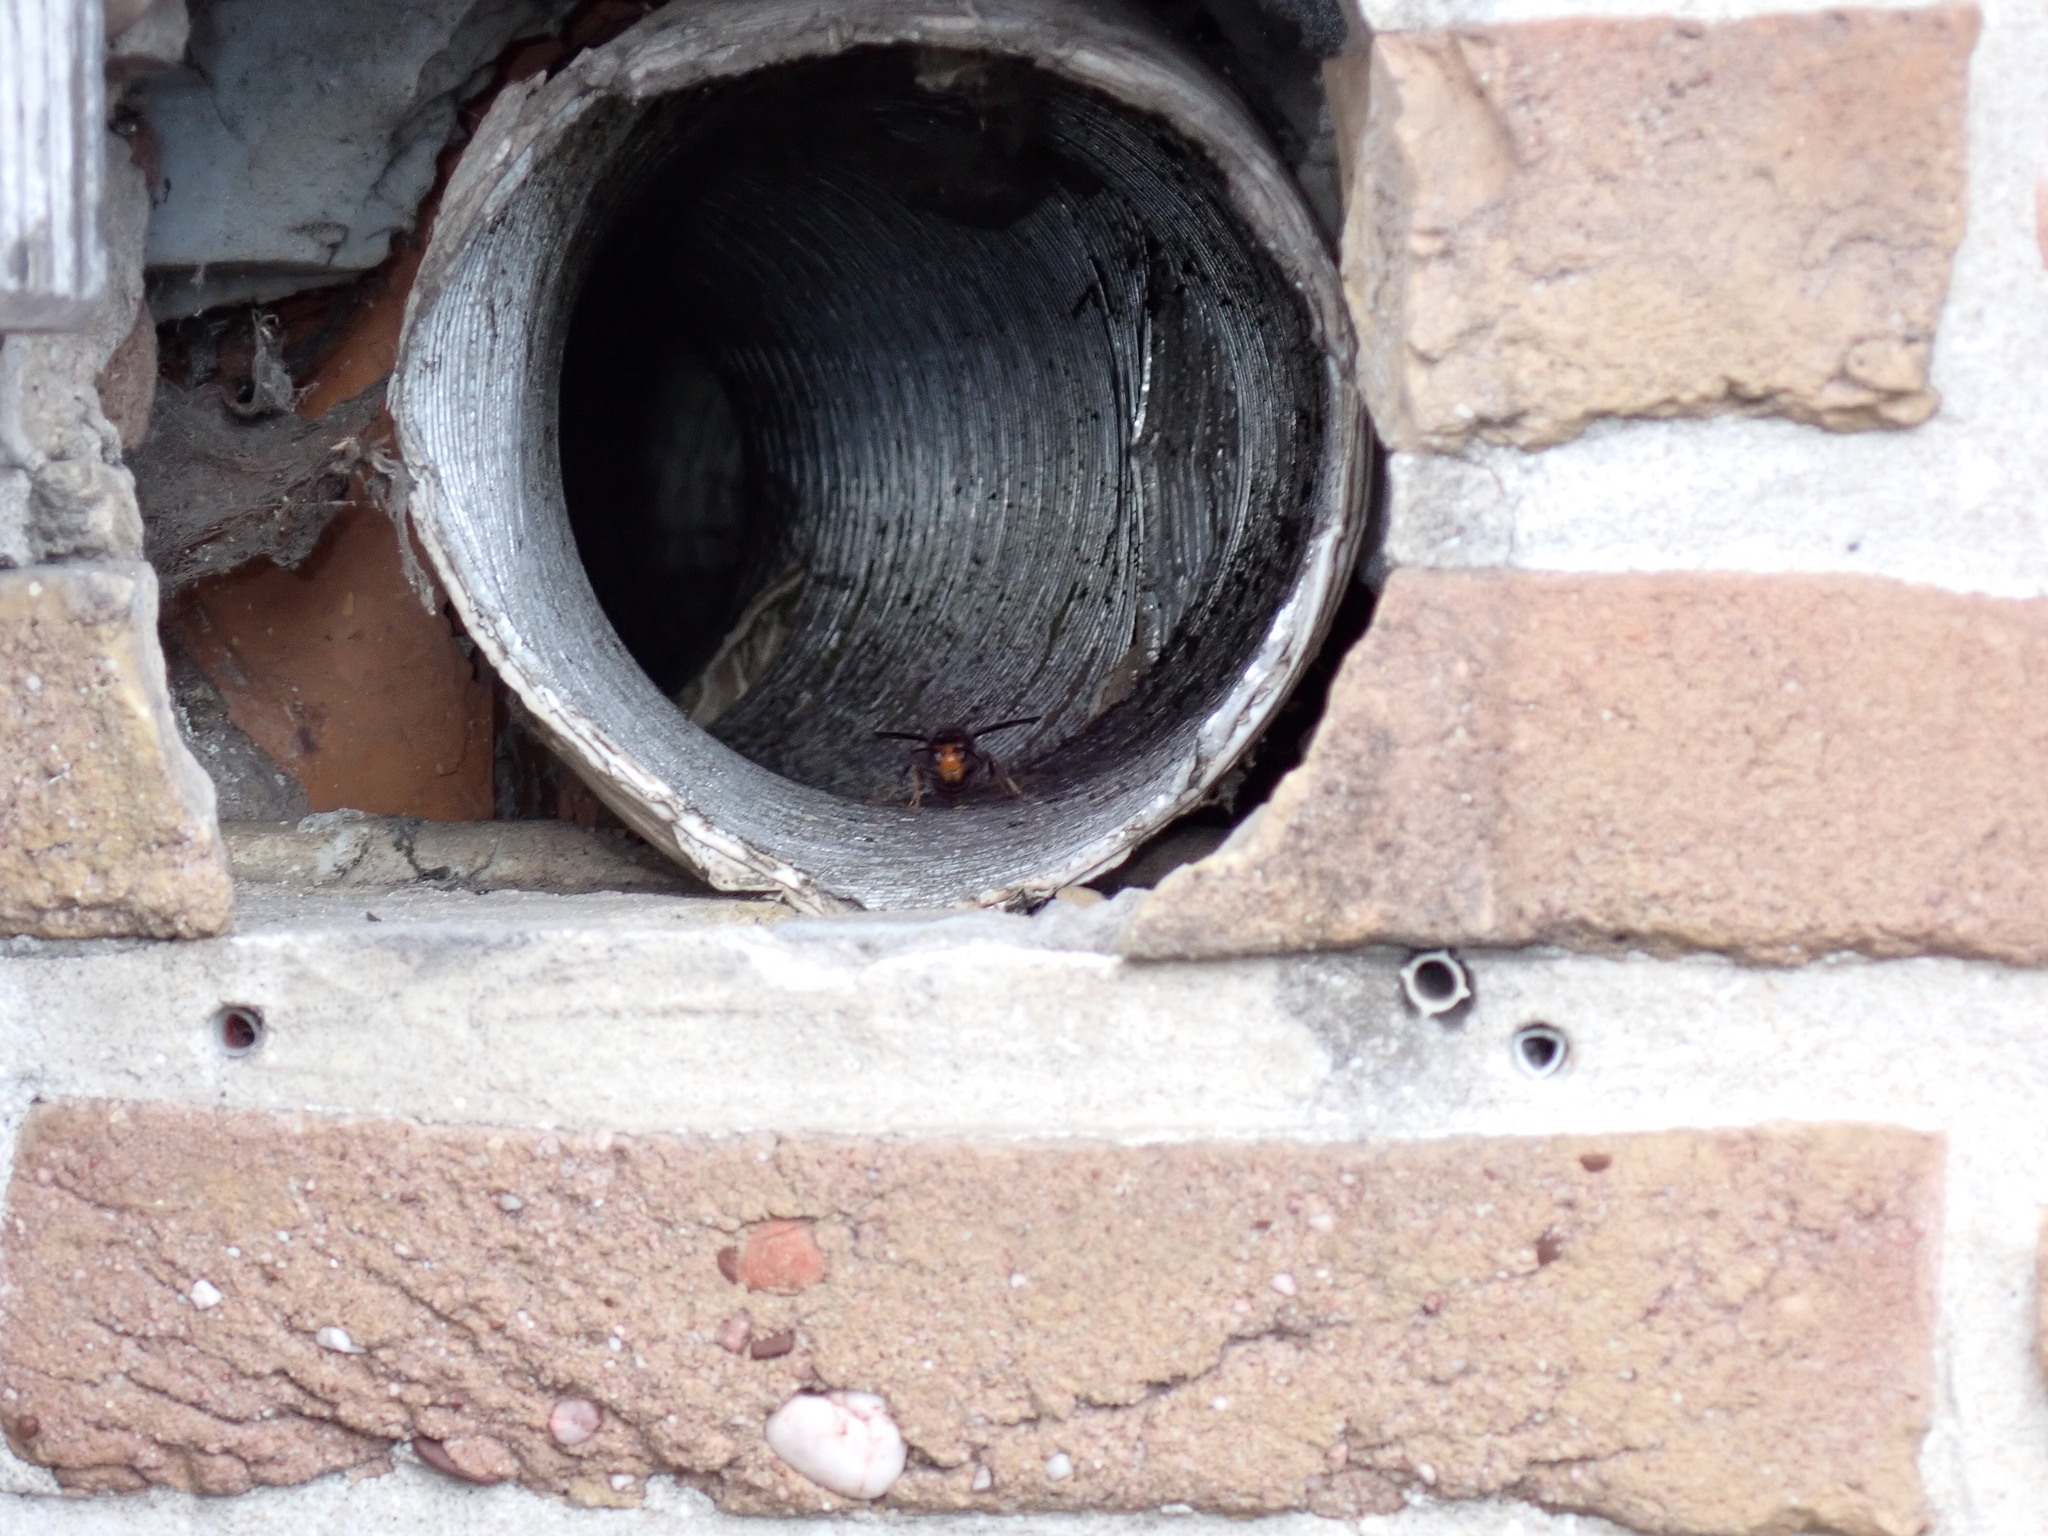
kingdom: Animalia
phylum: Arthropoda
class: Insecta
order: Hymenoptera
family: Vespidae
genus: Vespa
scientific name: Vespa velutina
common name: Asian hornet
